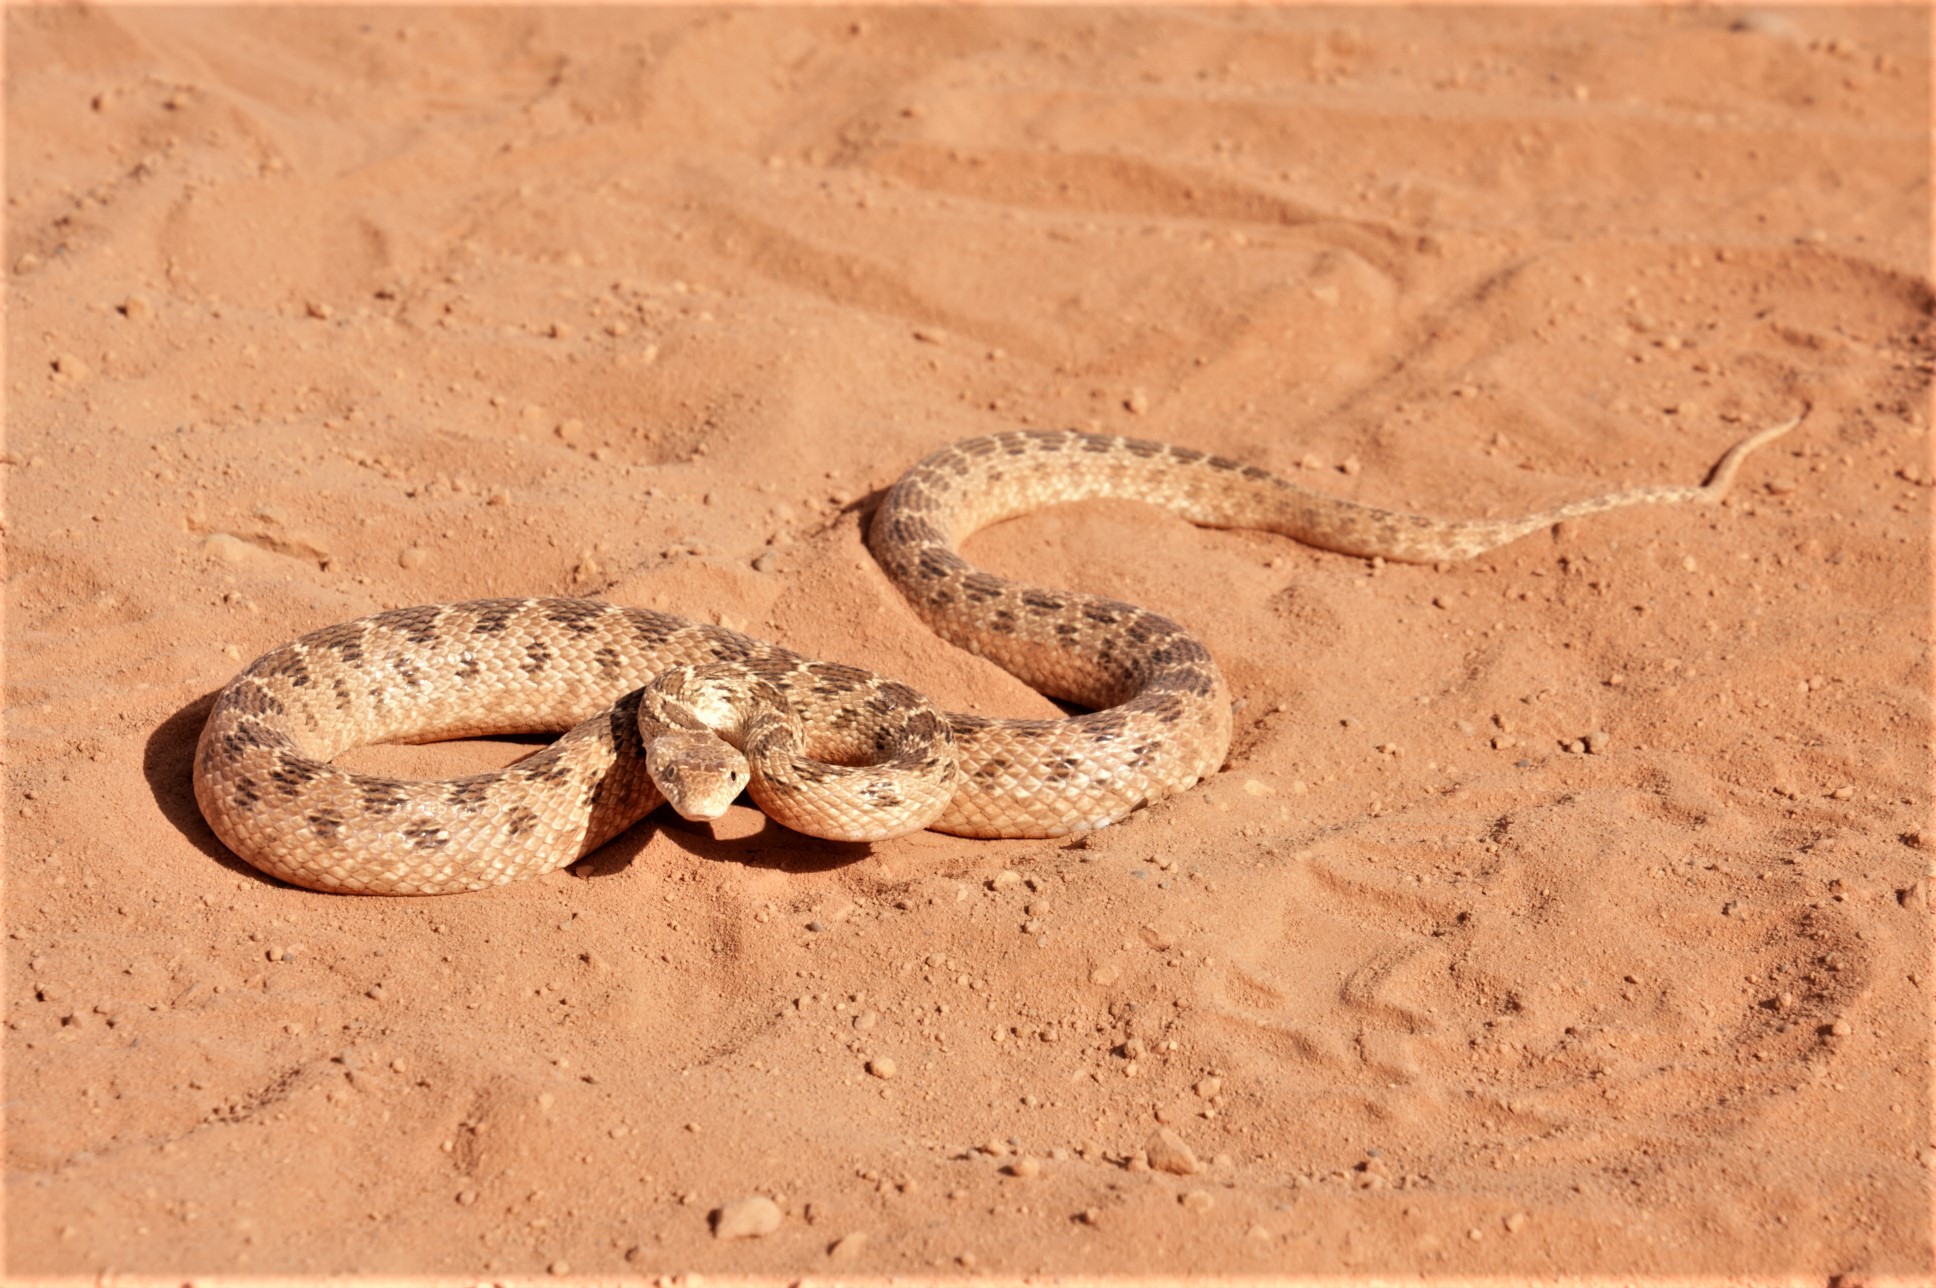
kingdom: Animalia
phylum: Chordata
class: Squamata
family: Colubridae
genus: Spalerosophis
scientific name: Spalerosophis diadema
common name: Diadem snake
